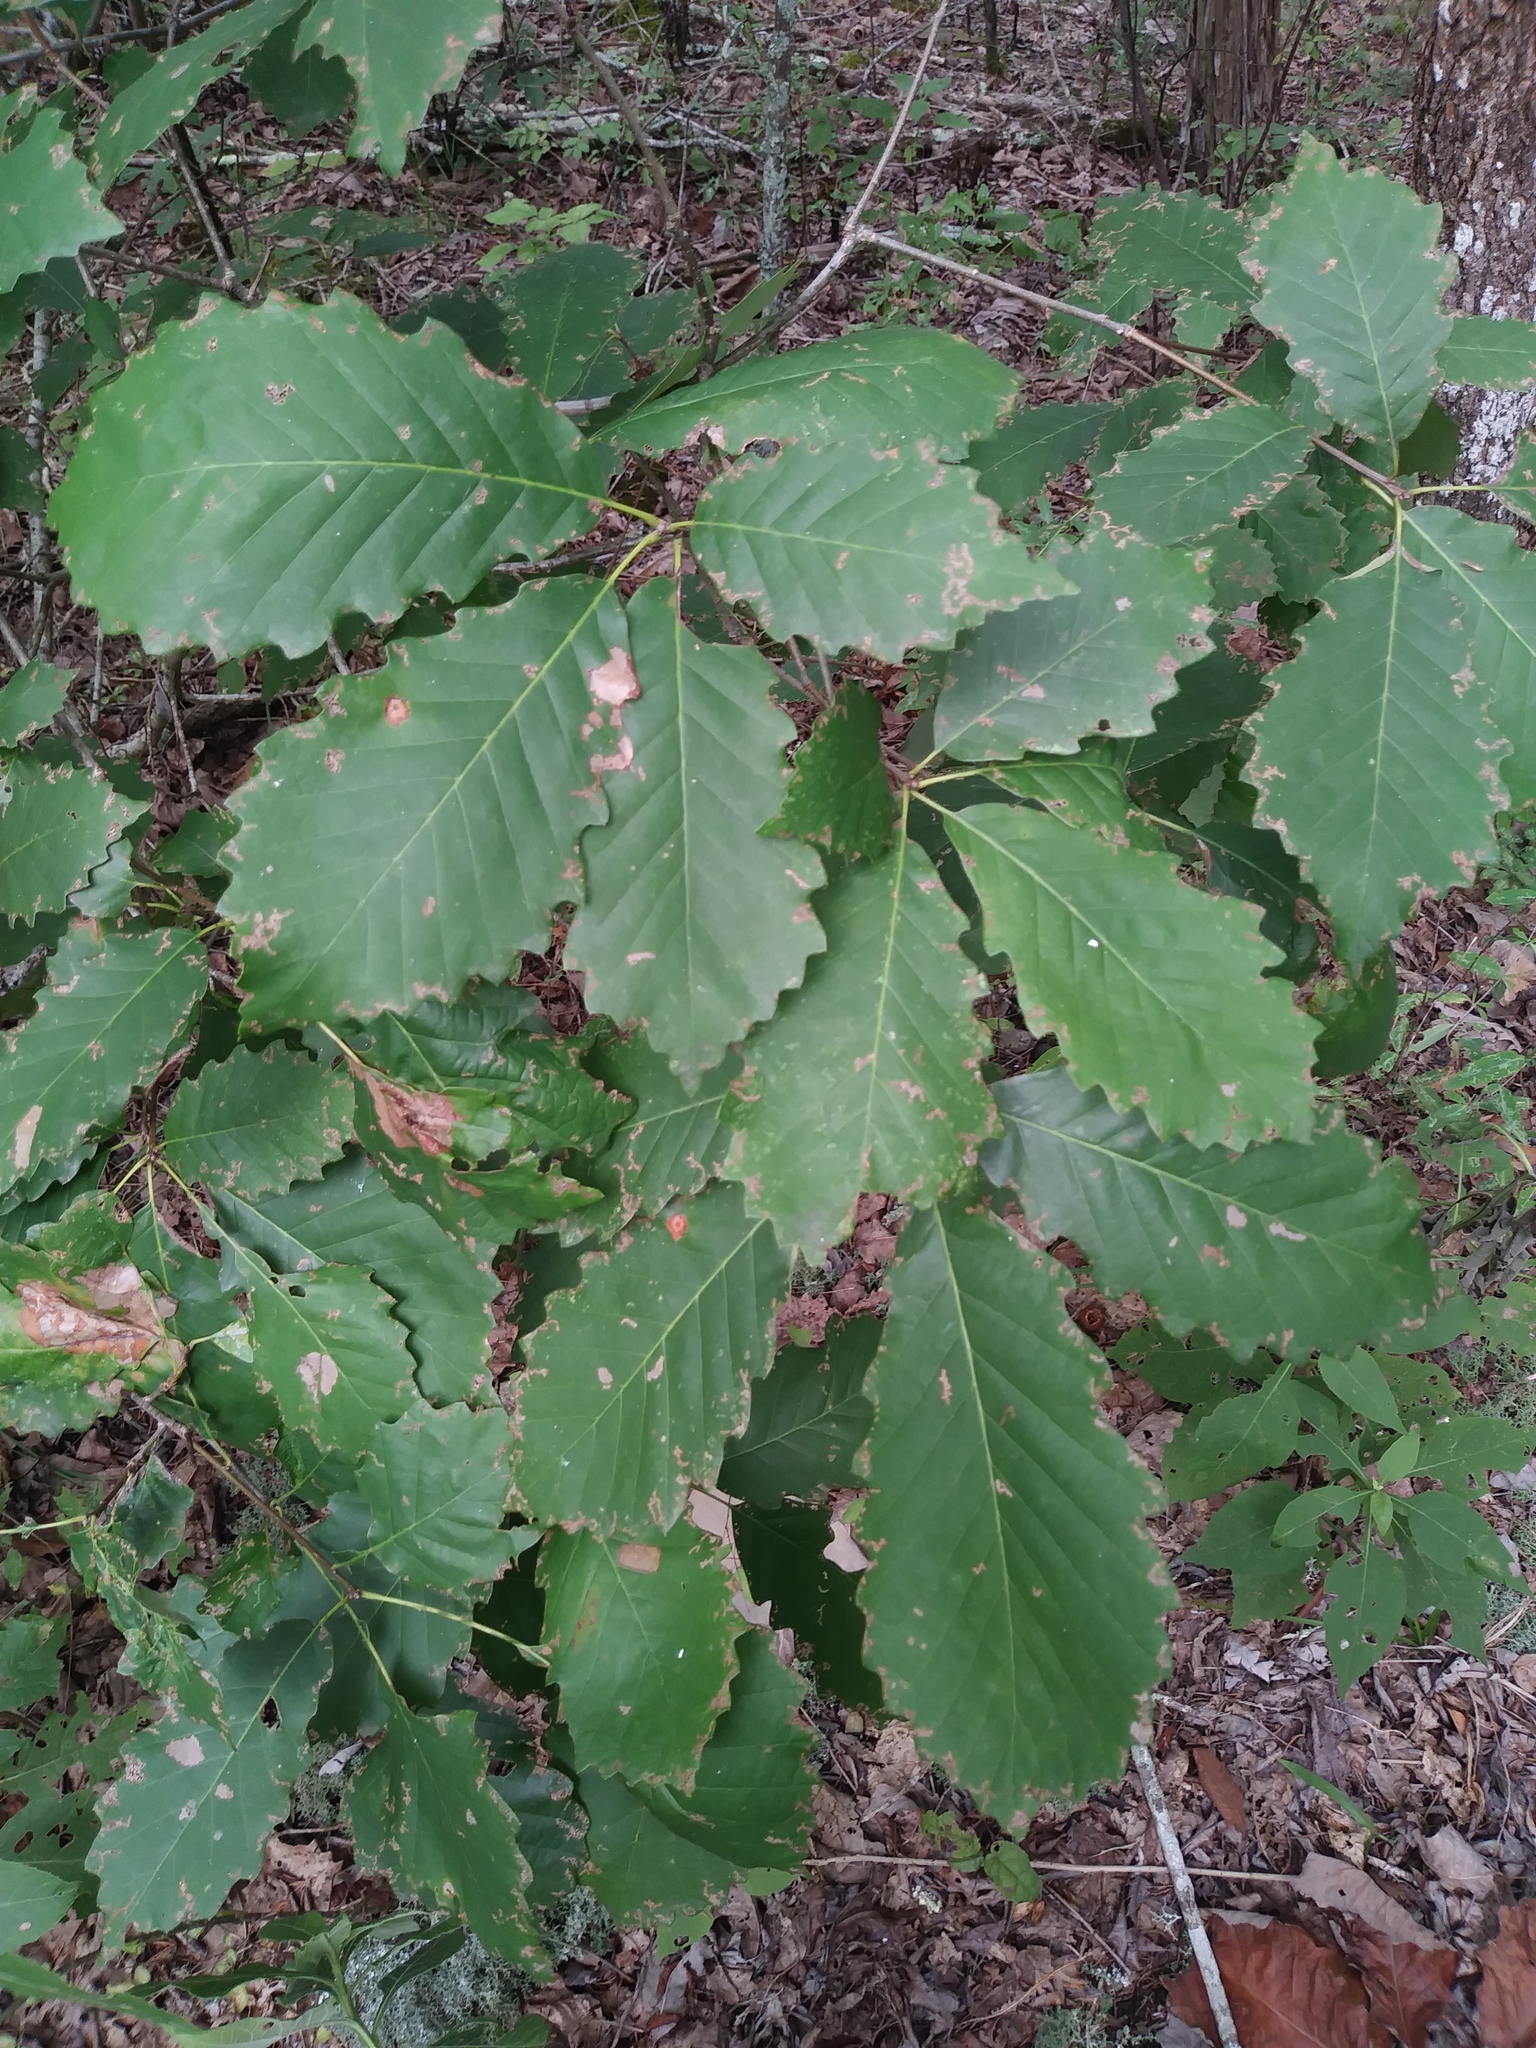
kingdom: Plantae
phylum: Tracheophyta
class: Magnoliopsida
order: Fagales
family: Fagaceae
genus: Quercus
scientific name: Quercus muehlenbergii
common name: Chinkapin oak
